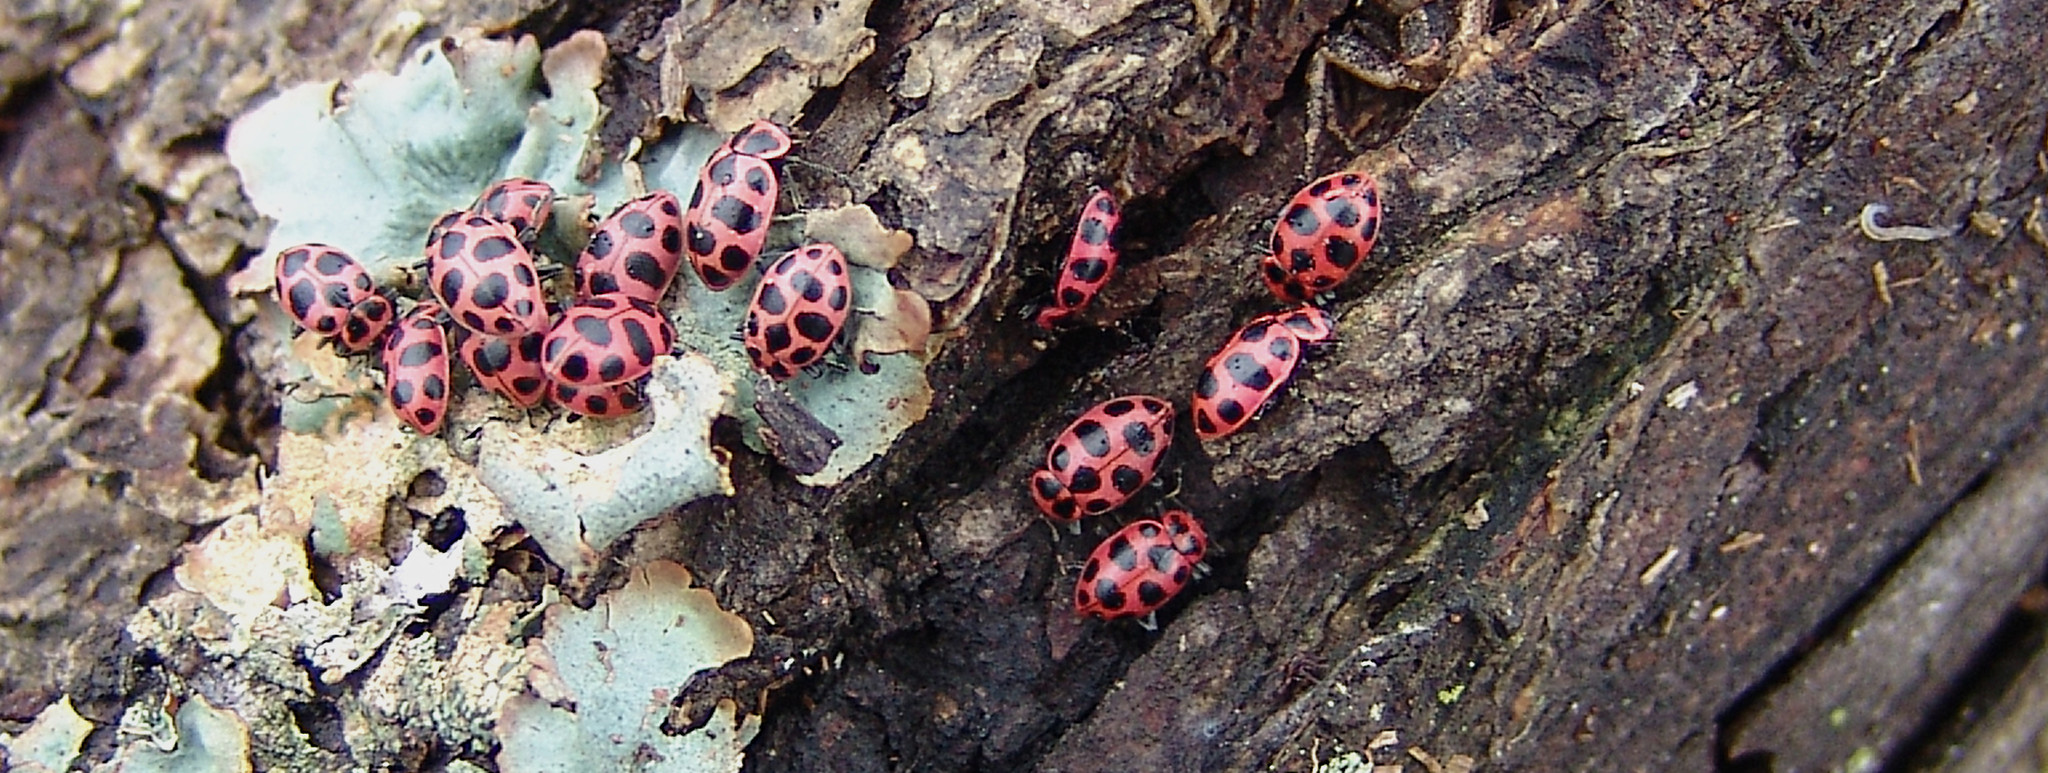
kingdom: Animalia
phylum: Arthropoda
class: Insecta
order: Coleoptera
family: Coccinellidae
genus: Coleomegilla
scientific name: Coleomegilla maculata
